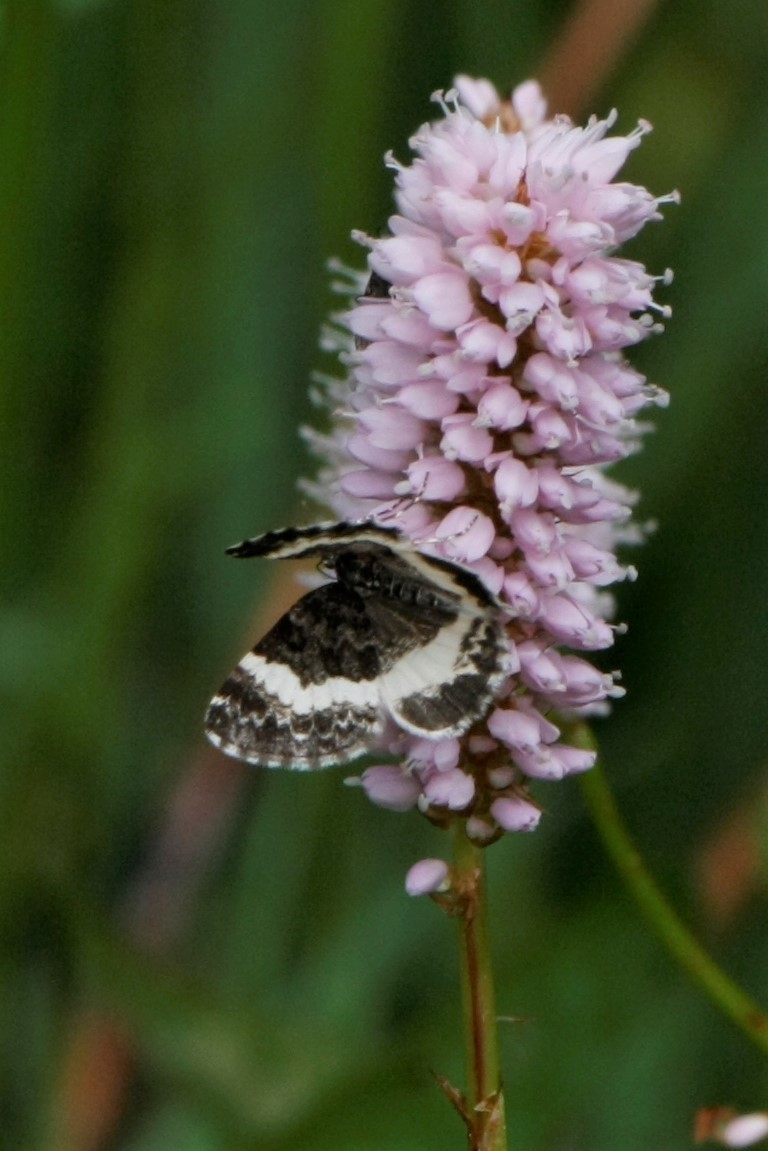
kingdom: Animalia
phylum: Arthropoda
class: Insecta
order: Lepidoptera
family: Geometridae
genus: Spargania
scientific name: Spargania luctuata
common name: White-banded carpet
